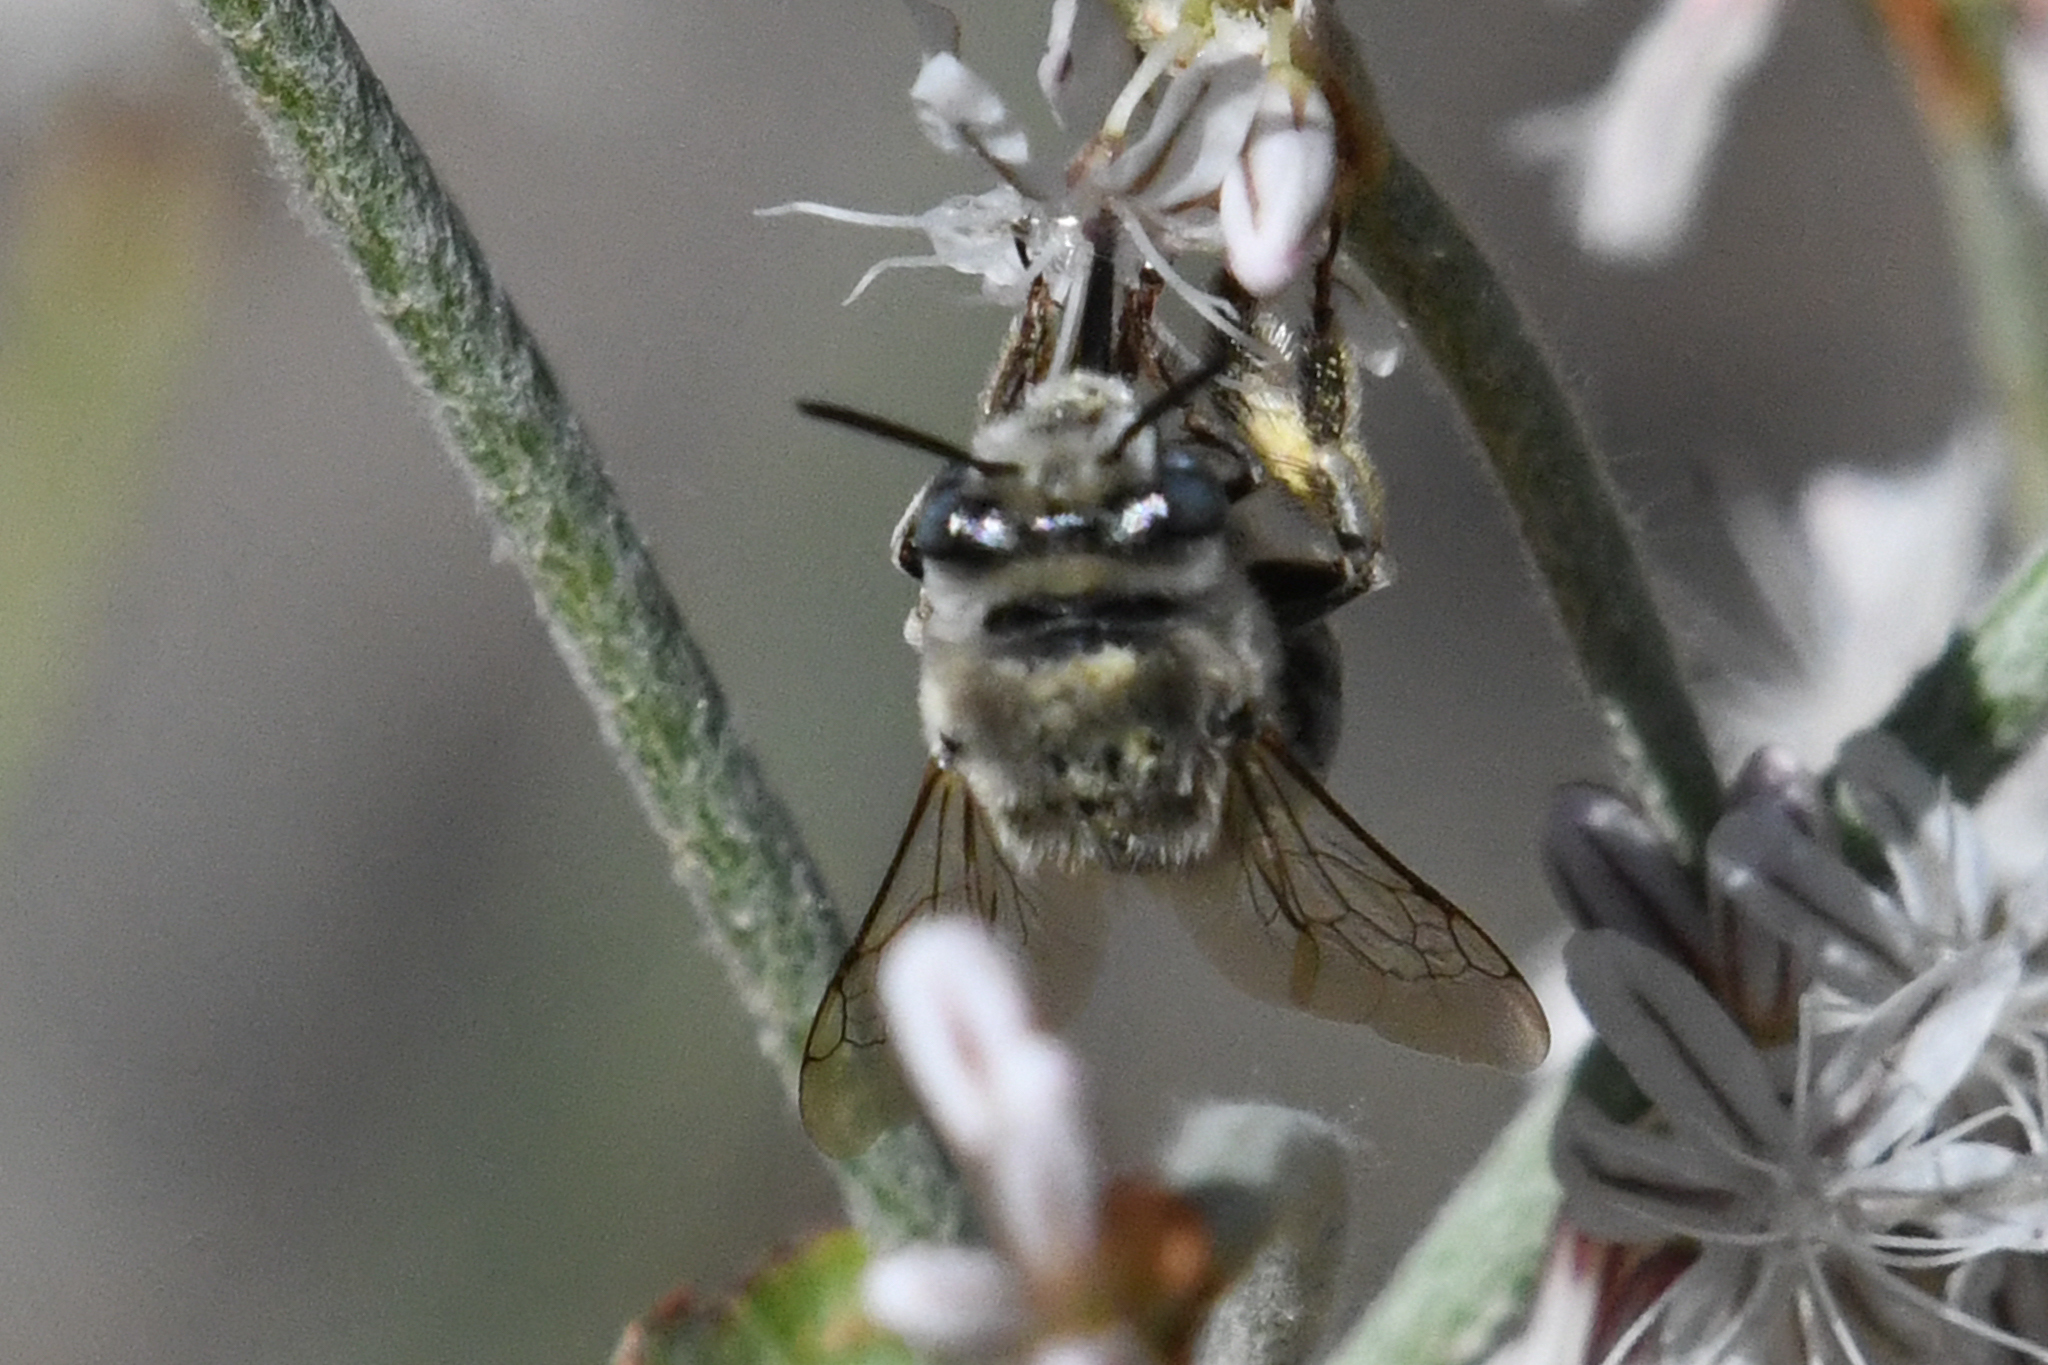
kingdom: Animalia
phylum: Arthropoda
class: Insecta
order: Hymenoptera
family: Apidae
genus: Anthophora
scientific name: Anthophora urbana
